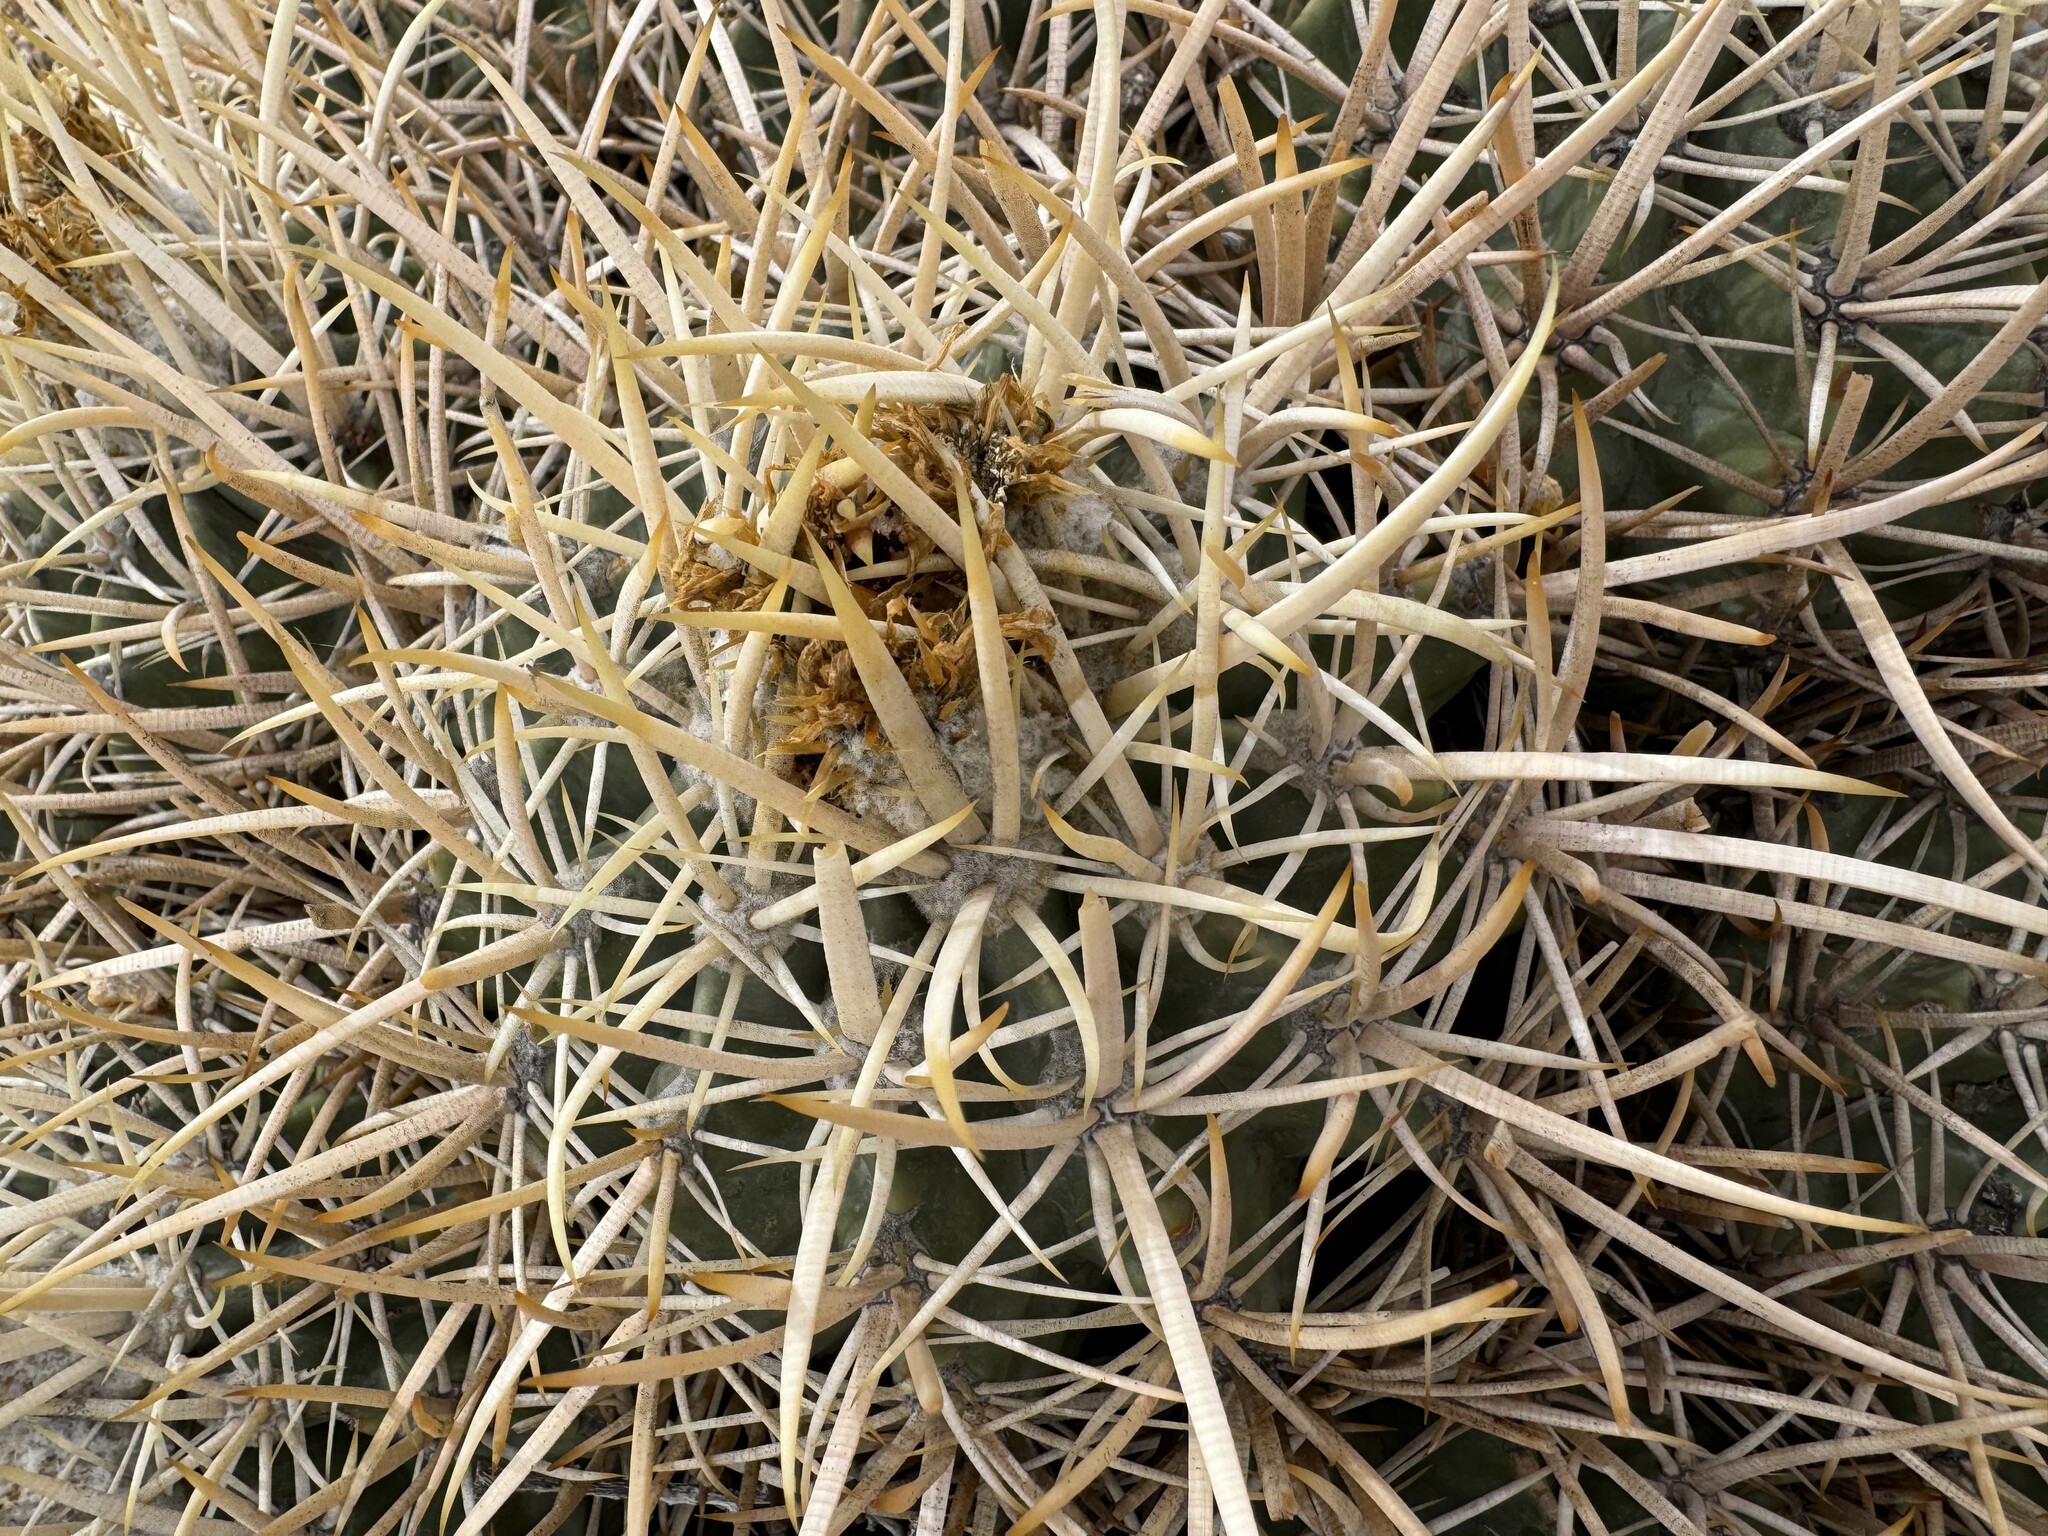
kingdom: Plantae
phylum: Tracheophyta
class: Magnoliopsida
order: Caryophyllales
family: Cactaceae
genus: Echinocactus
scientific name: Echinocactus polycephalus
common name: Cottontop cactus
